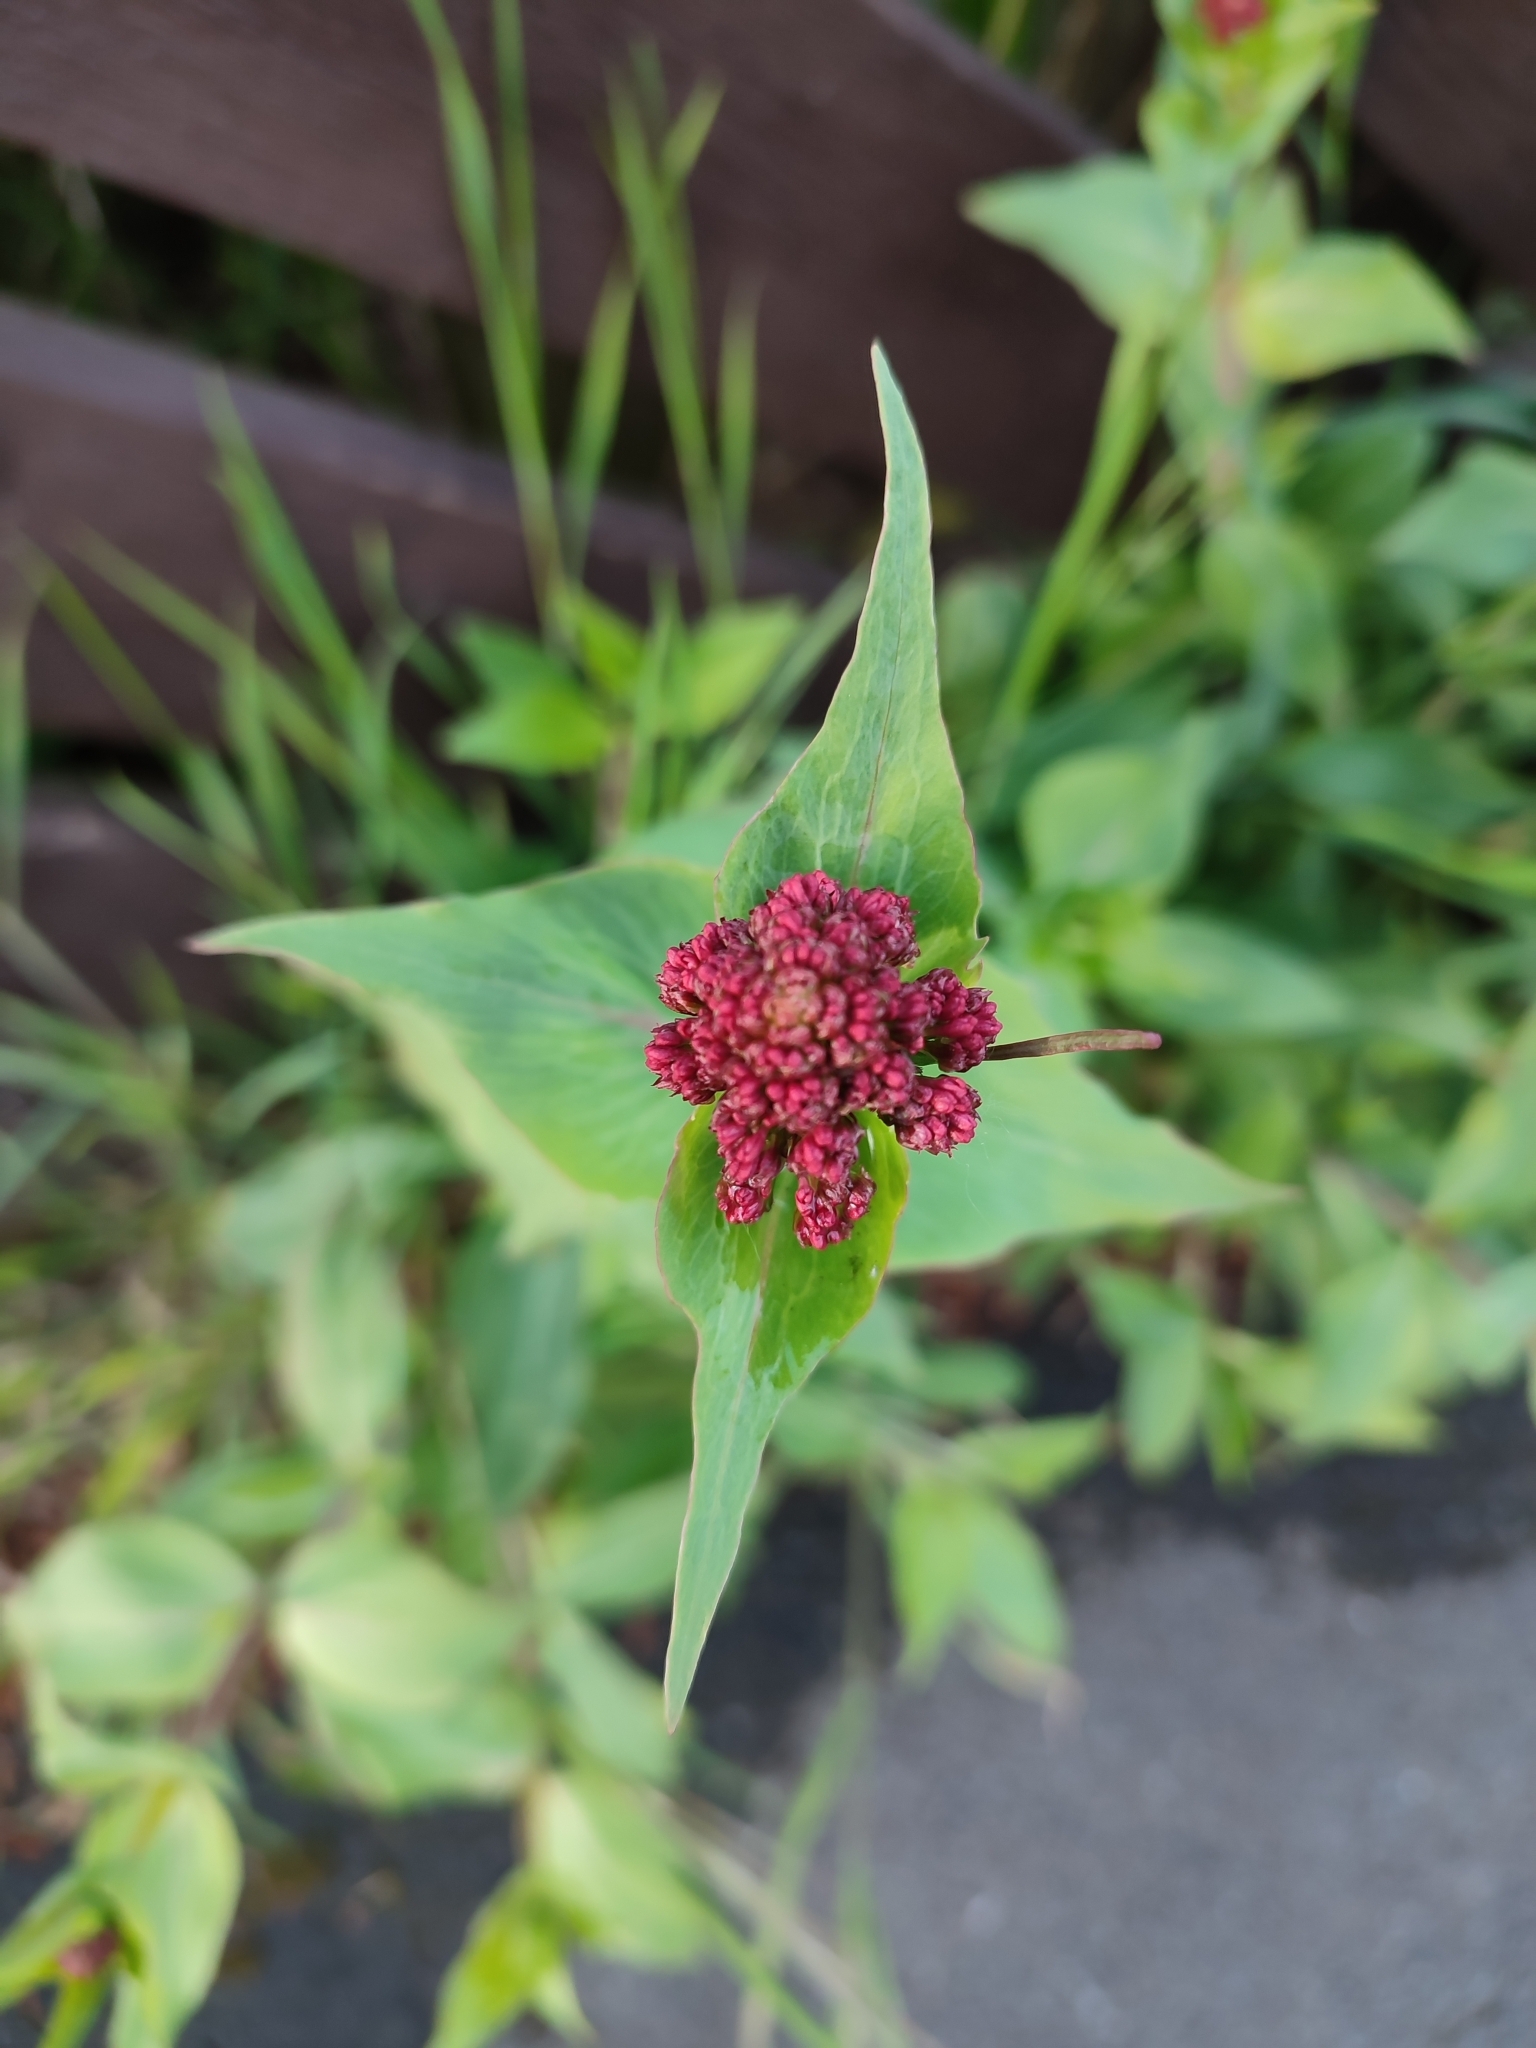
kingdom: Plantae
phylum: Tracheophyta
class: Magnoliopsida
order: Dipsacales
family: Caprifoliaceae
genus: Centranthus
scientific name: Centranthus ruber
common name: Red valerian
